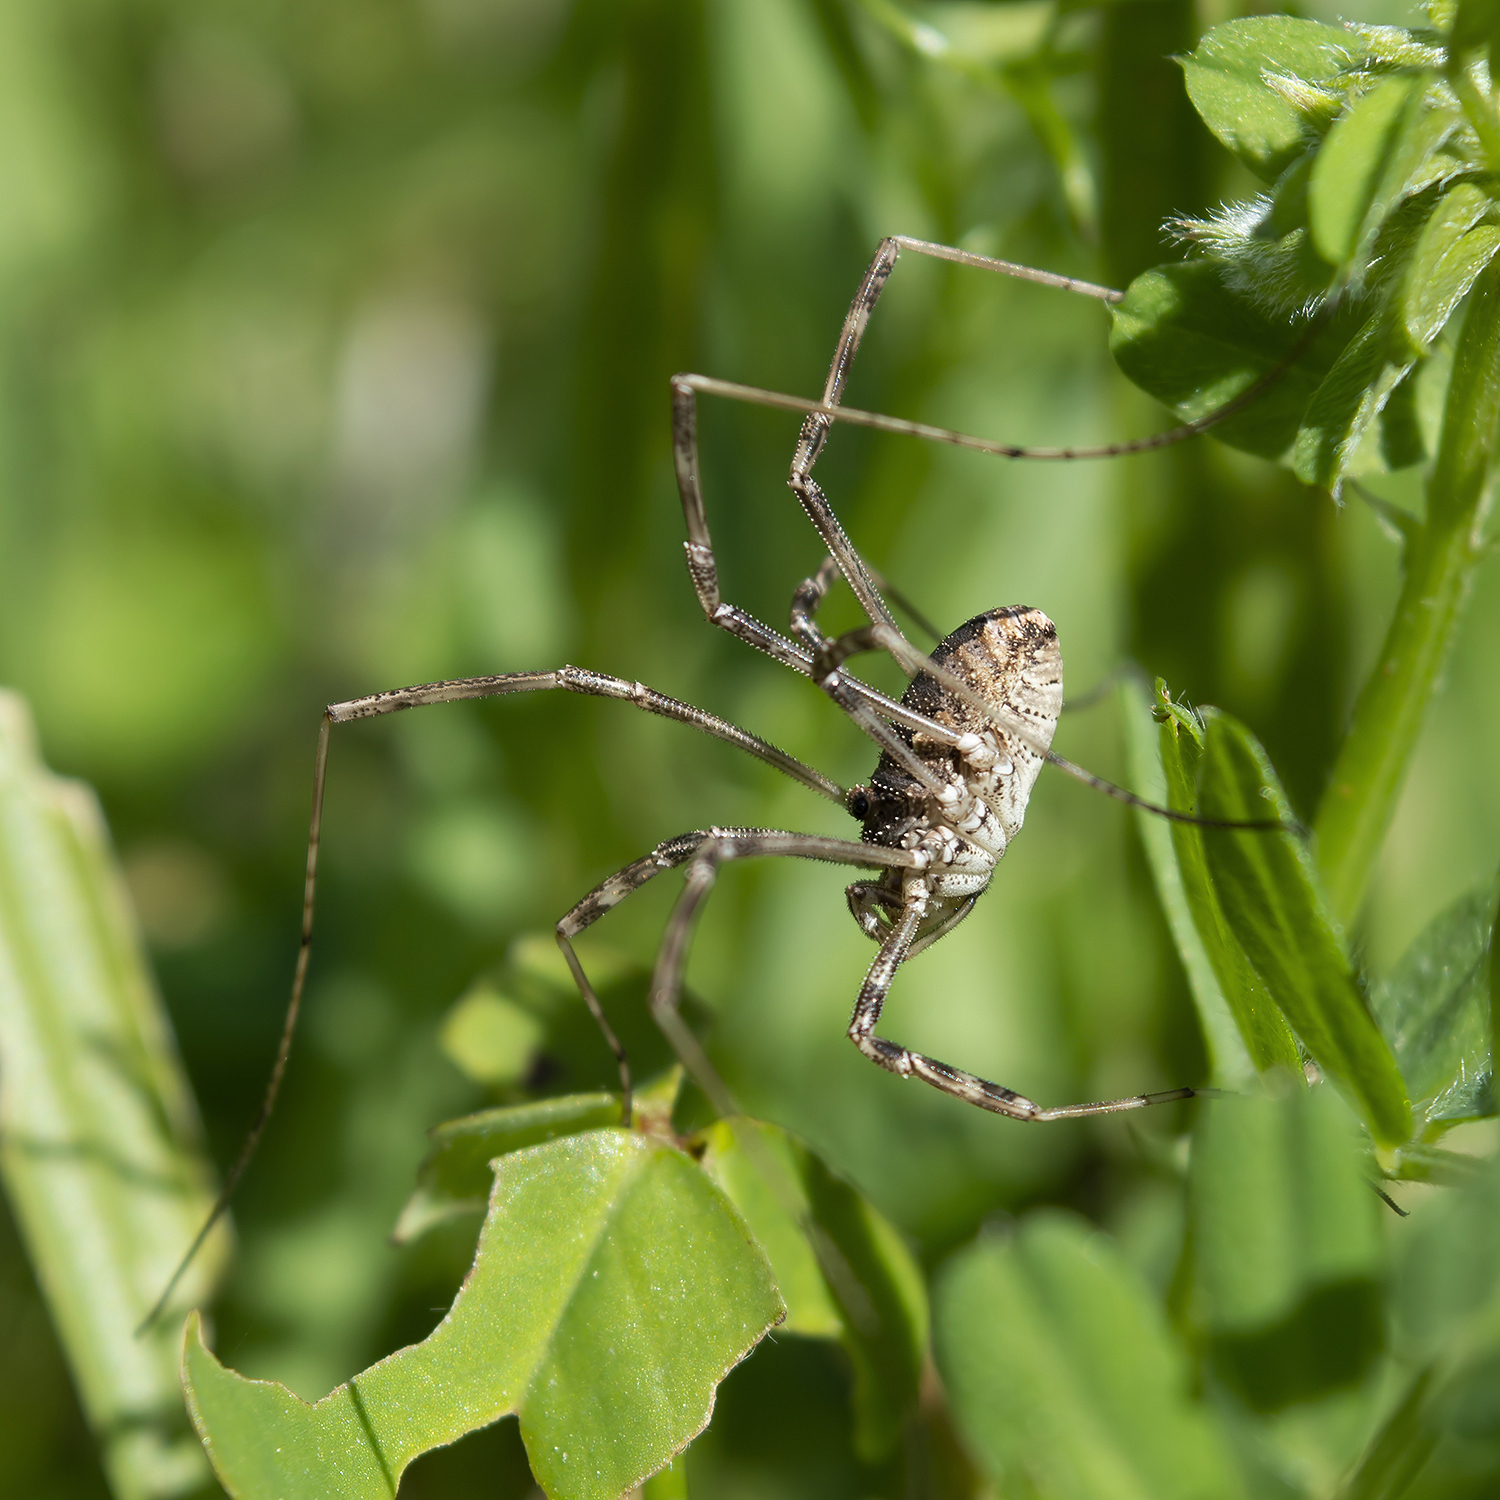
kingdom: Animalia
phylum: Arthropoda
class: Arachnida
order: Opiliones
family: Phalangiidae
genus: Metaplatybunus
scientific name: Metaplatybunus grandissimus
